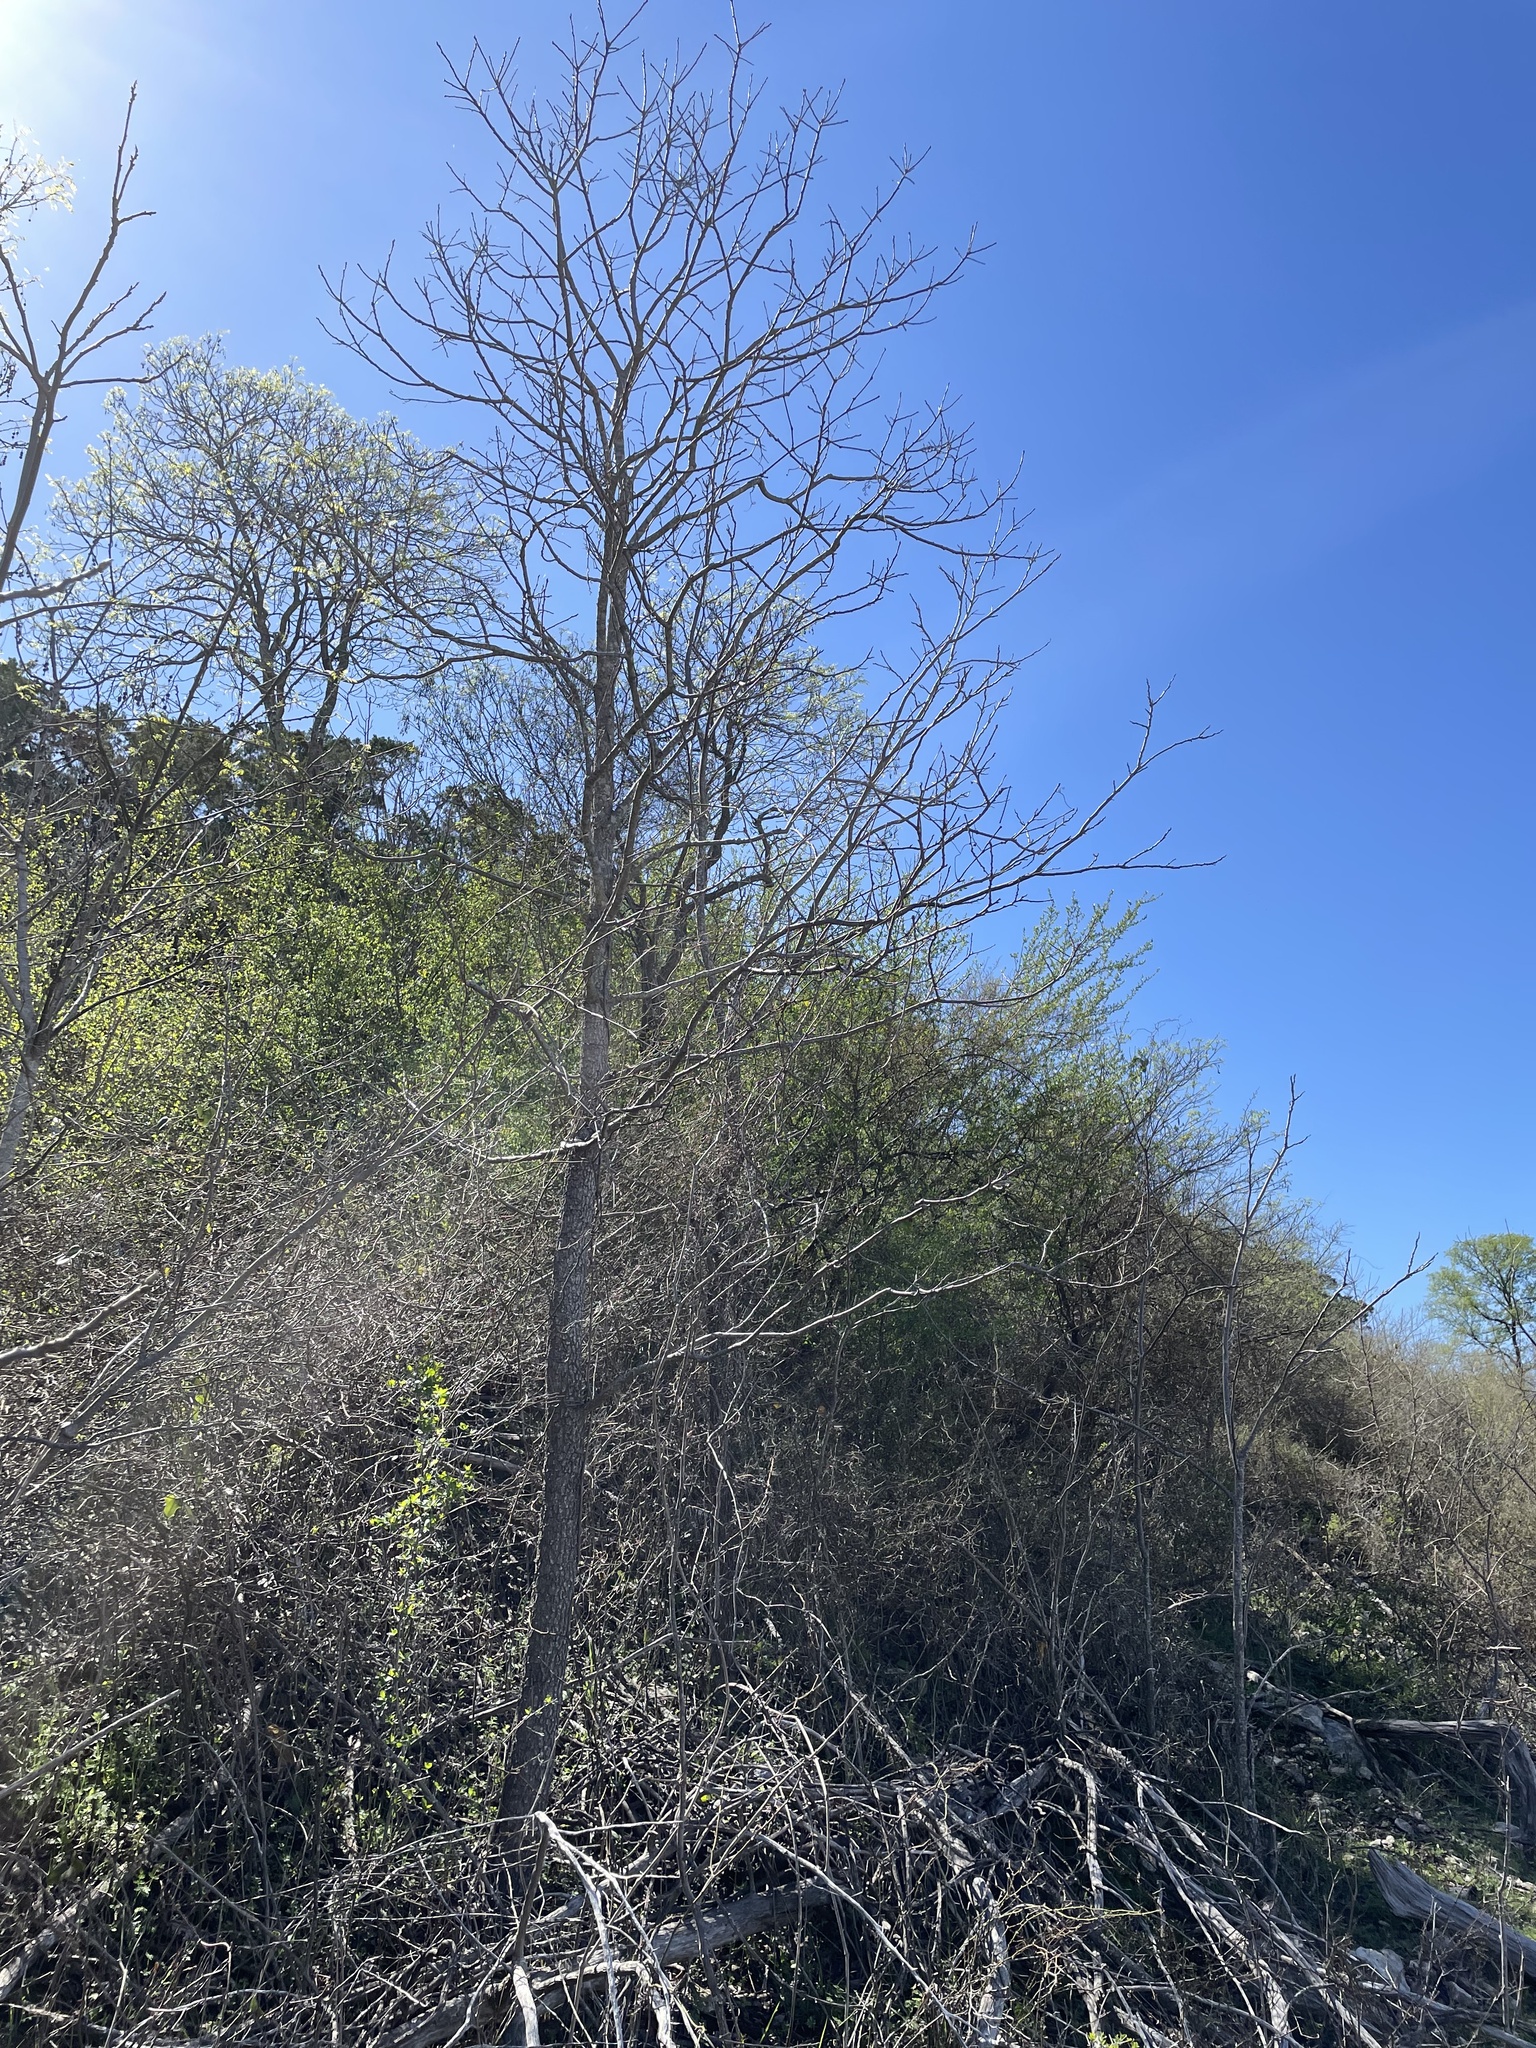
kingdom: Plantae
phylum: Tracheophyta
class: Magnoliopsida
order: Ericales
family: Ebenaceae
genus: Diospyros
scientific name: Diospyros virginiana
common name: Persimmon
